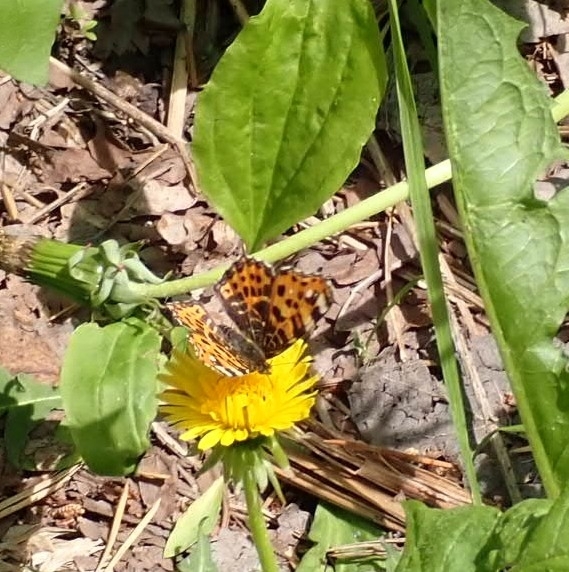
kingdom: Animalia
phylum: Arthropoda
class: Insecta
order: Lepidoptera
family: Nymphalidae
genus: Araschnia
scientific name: Araschnia levana
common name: Map butterfly
